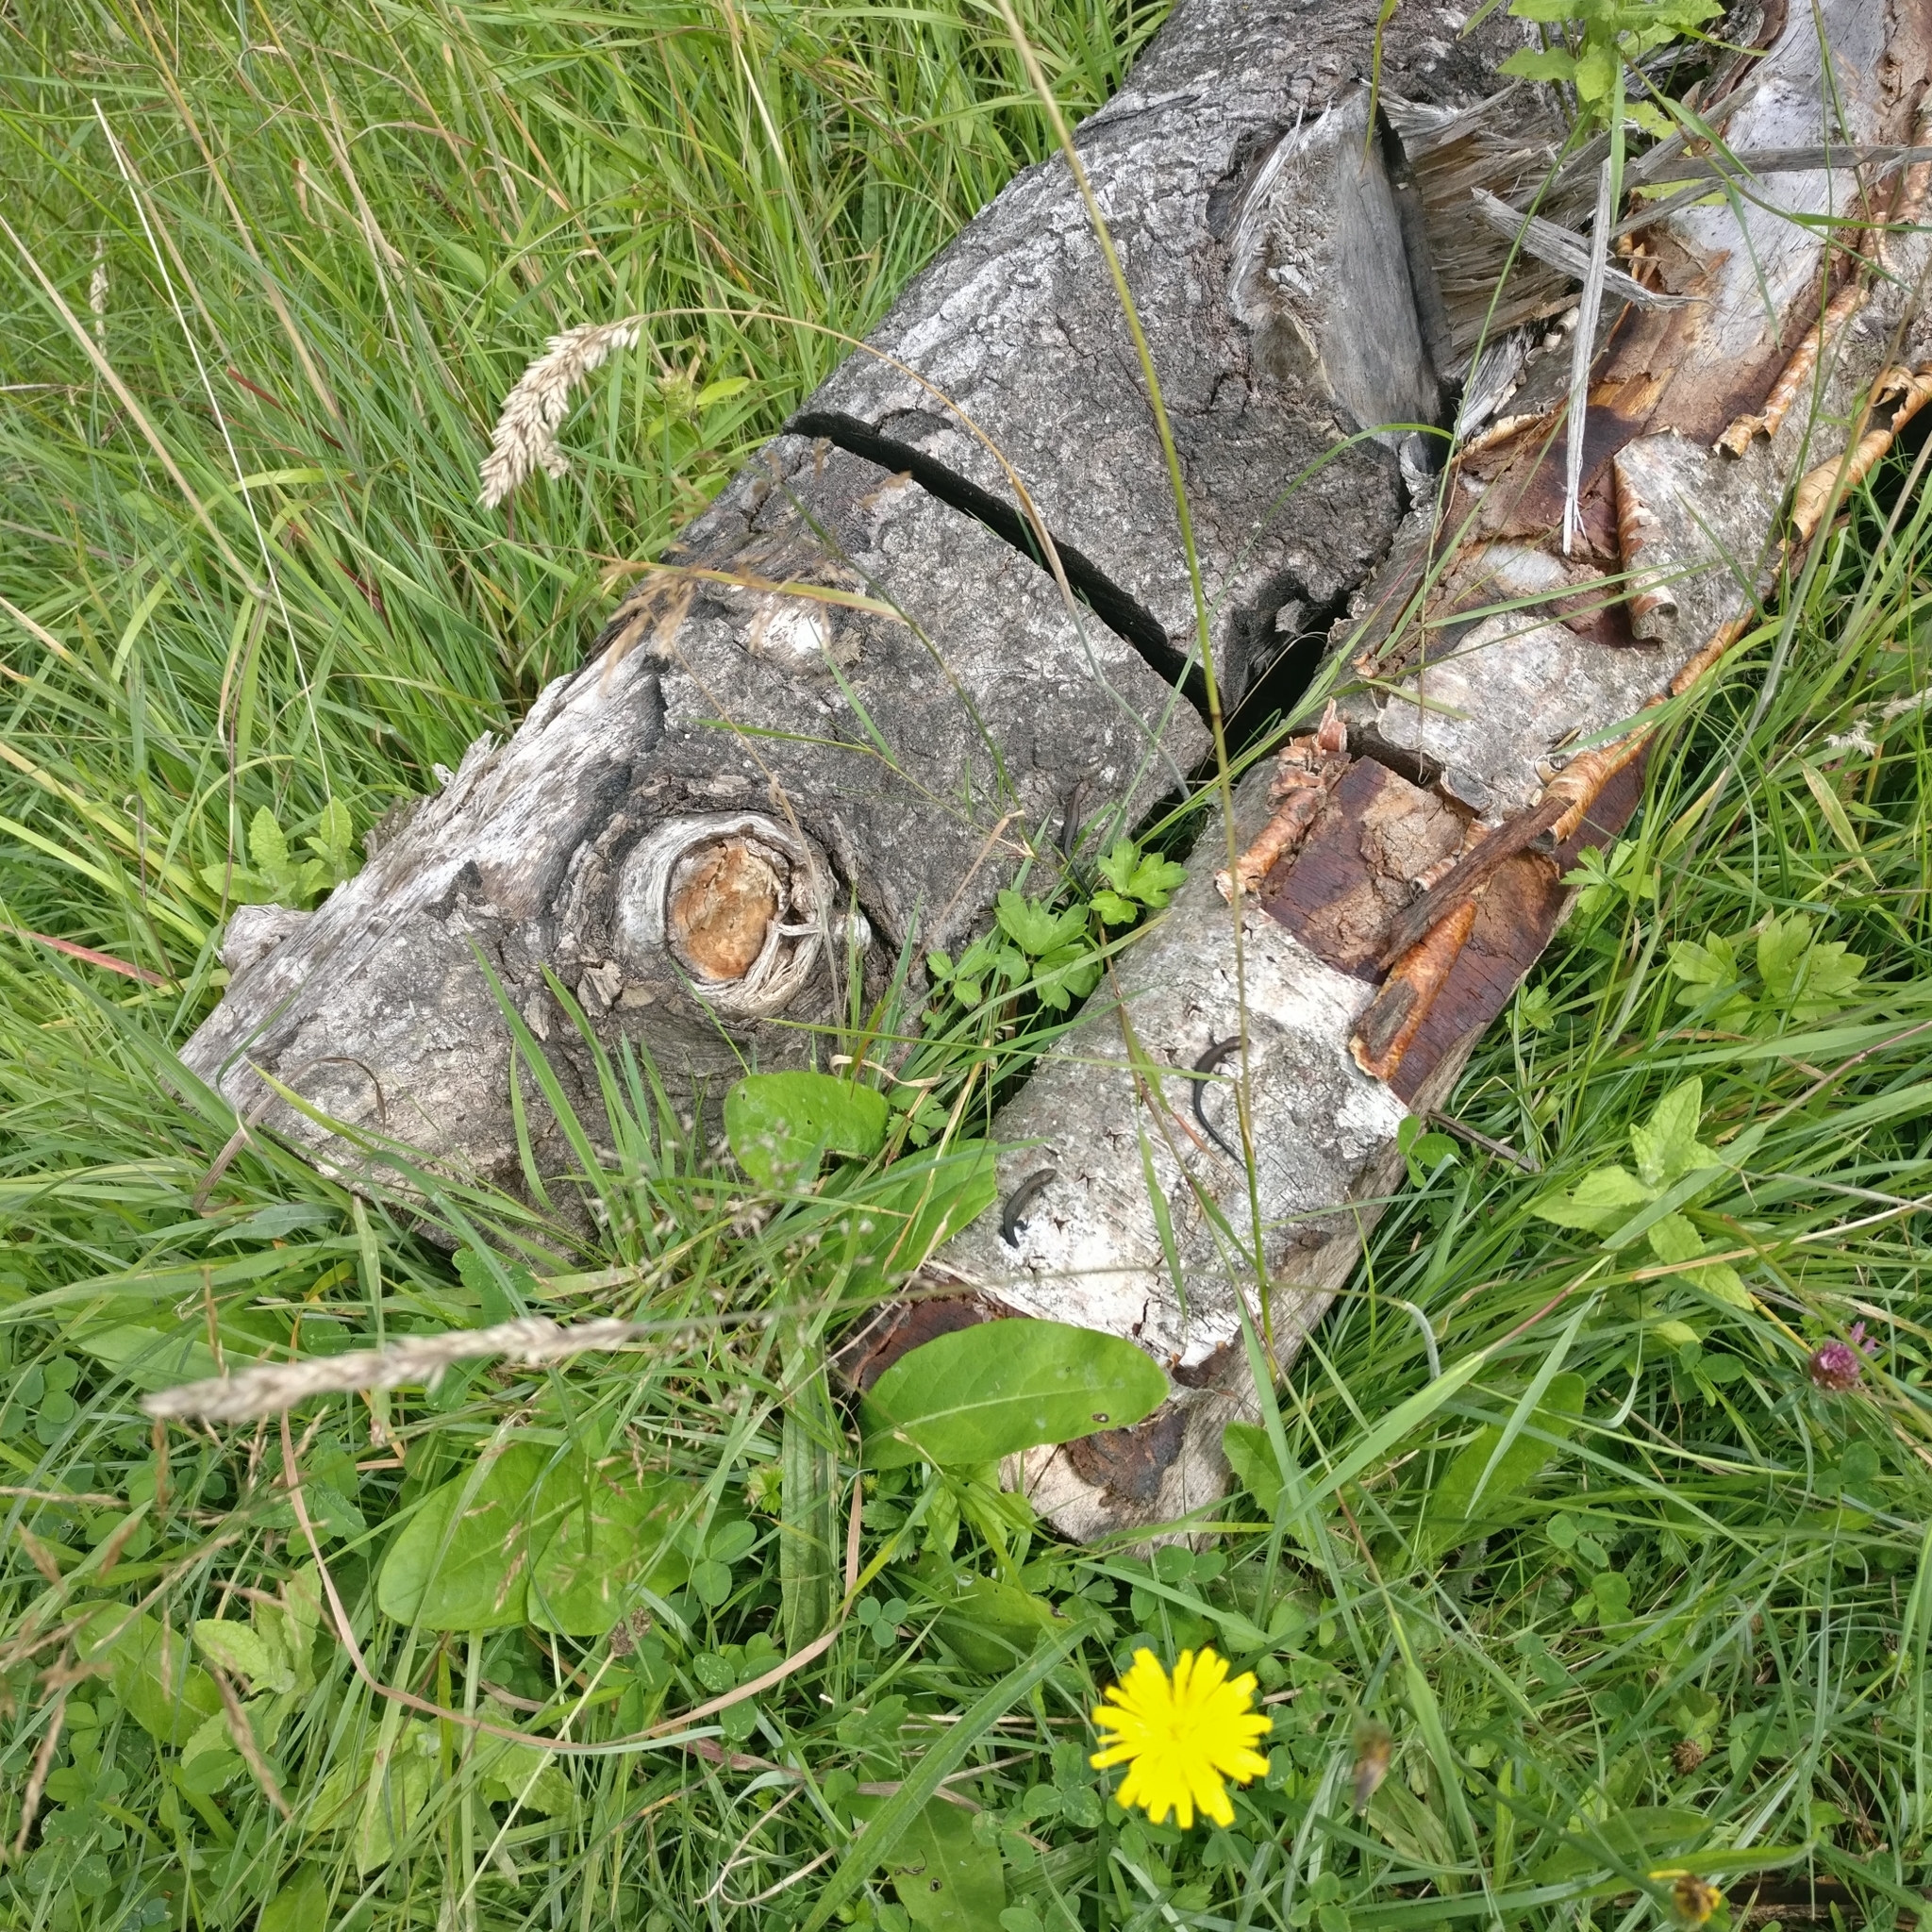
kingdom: Animalia
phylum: Chordata
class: Squamata
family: Lacertidae
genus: Zootoca
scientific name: Zootoca vivipara
